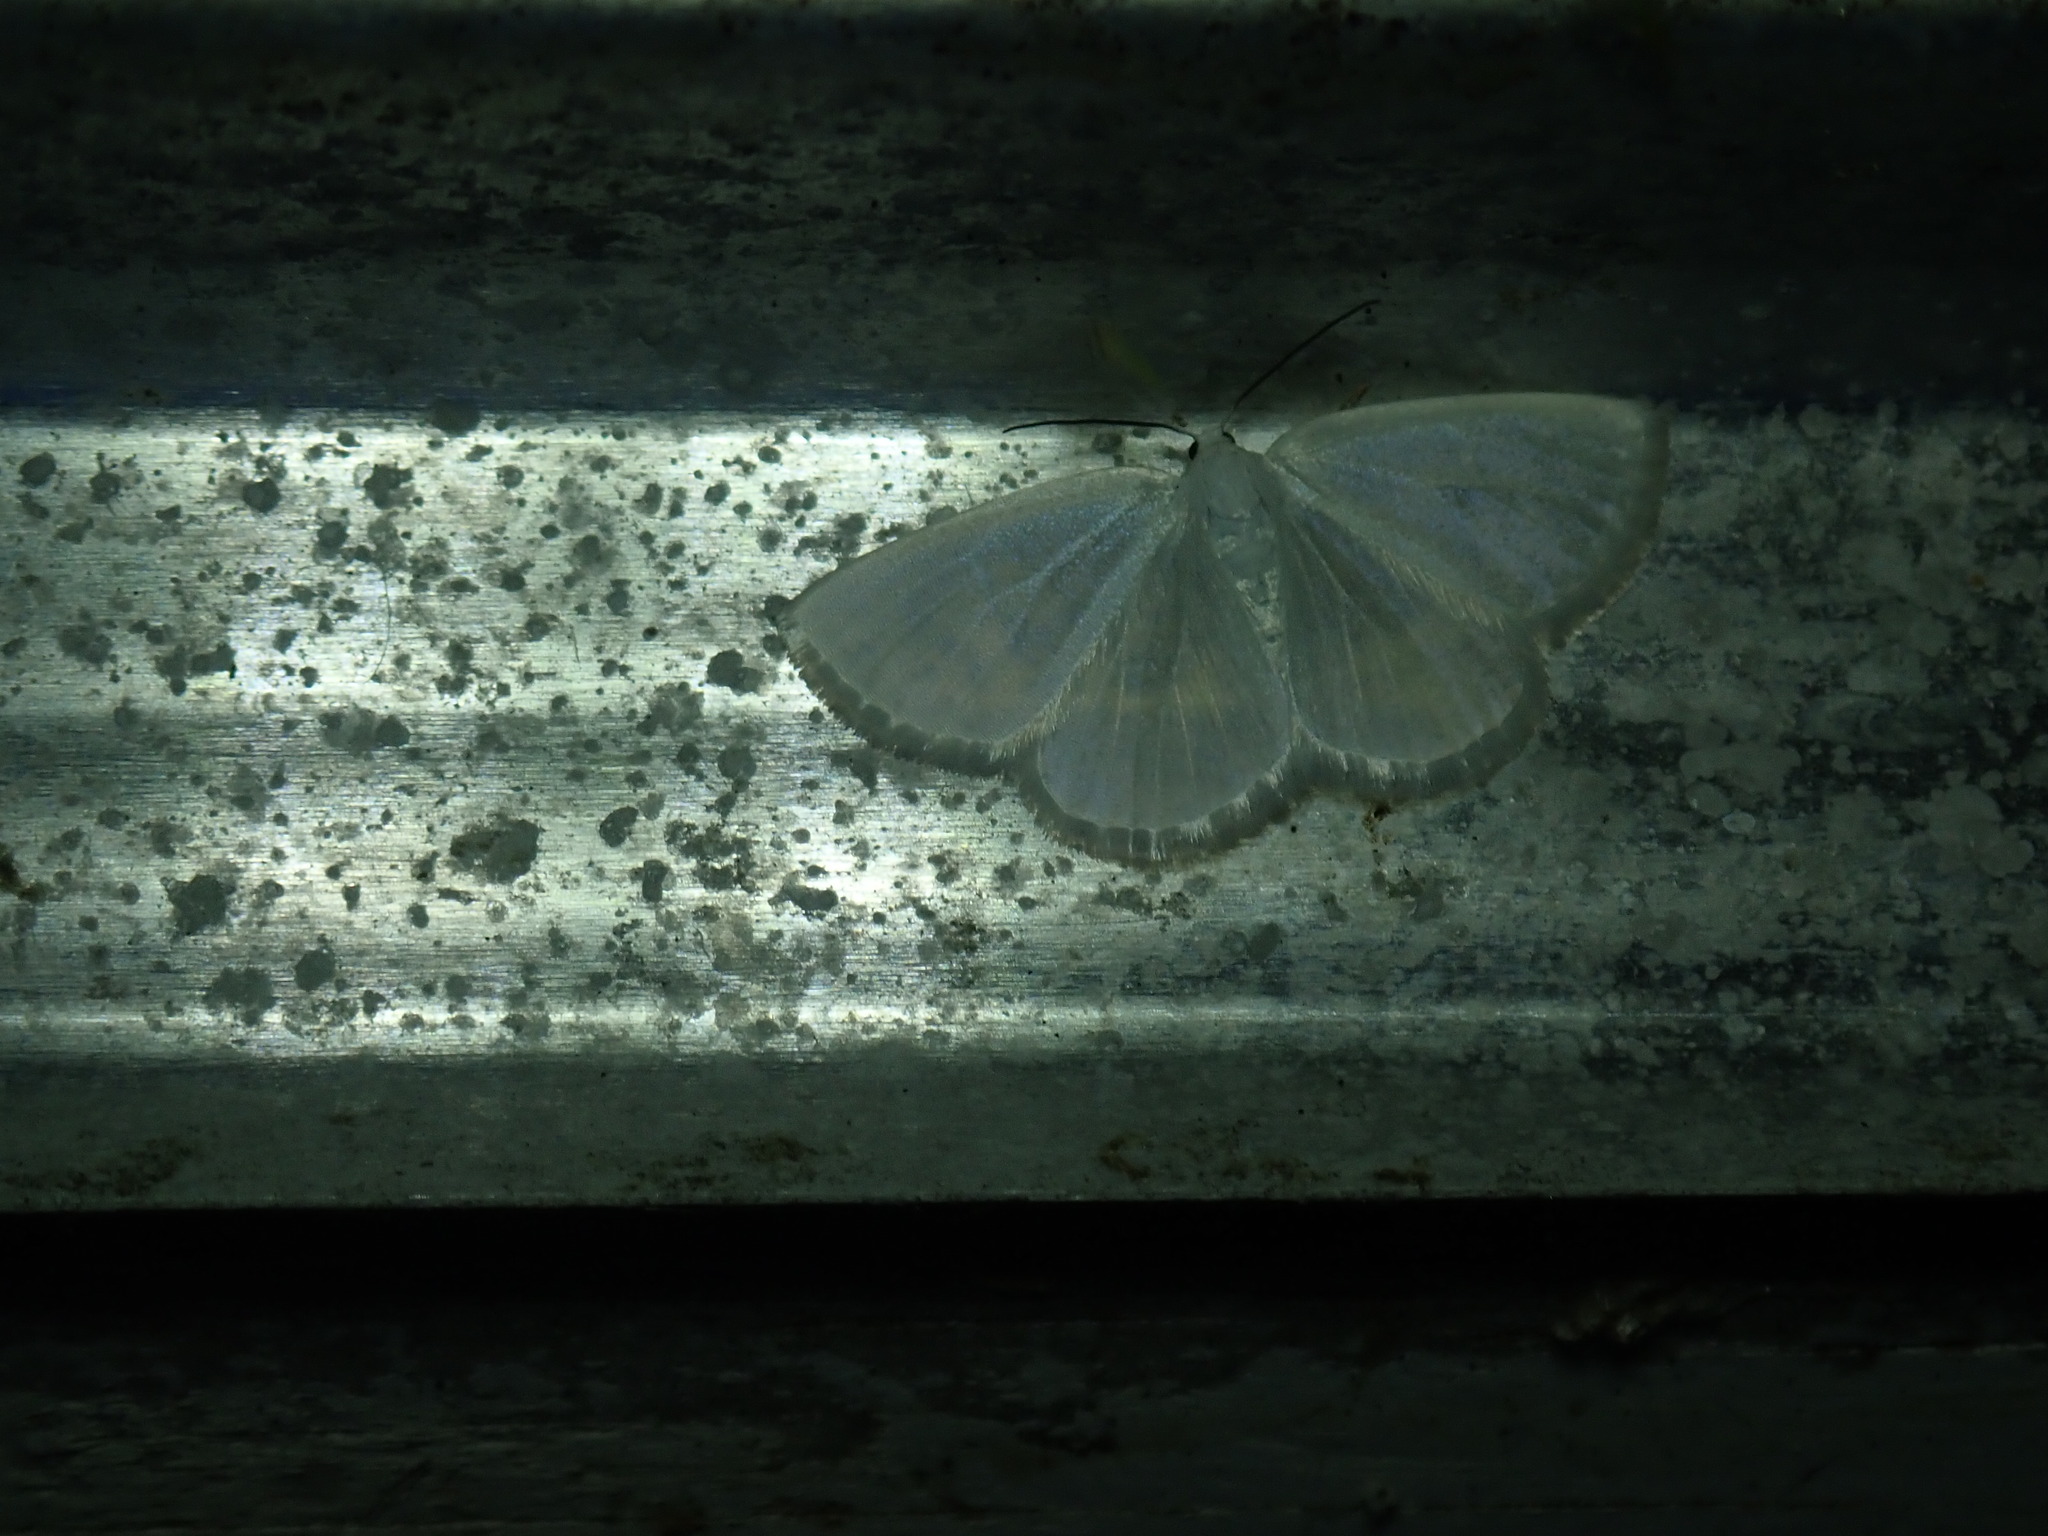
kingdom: Animalia
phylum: Arthropoda
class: Insecta
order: Lepidoptera
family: Geometridae
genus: Lomographa
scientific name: Lomographa vestaliata
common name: White spring moth
